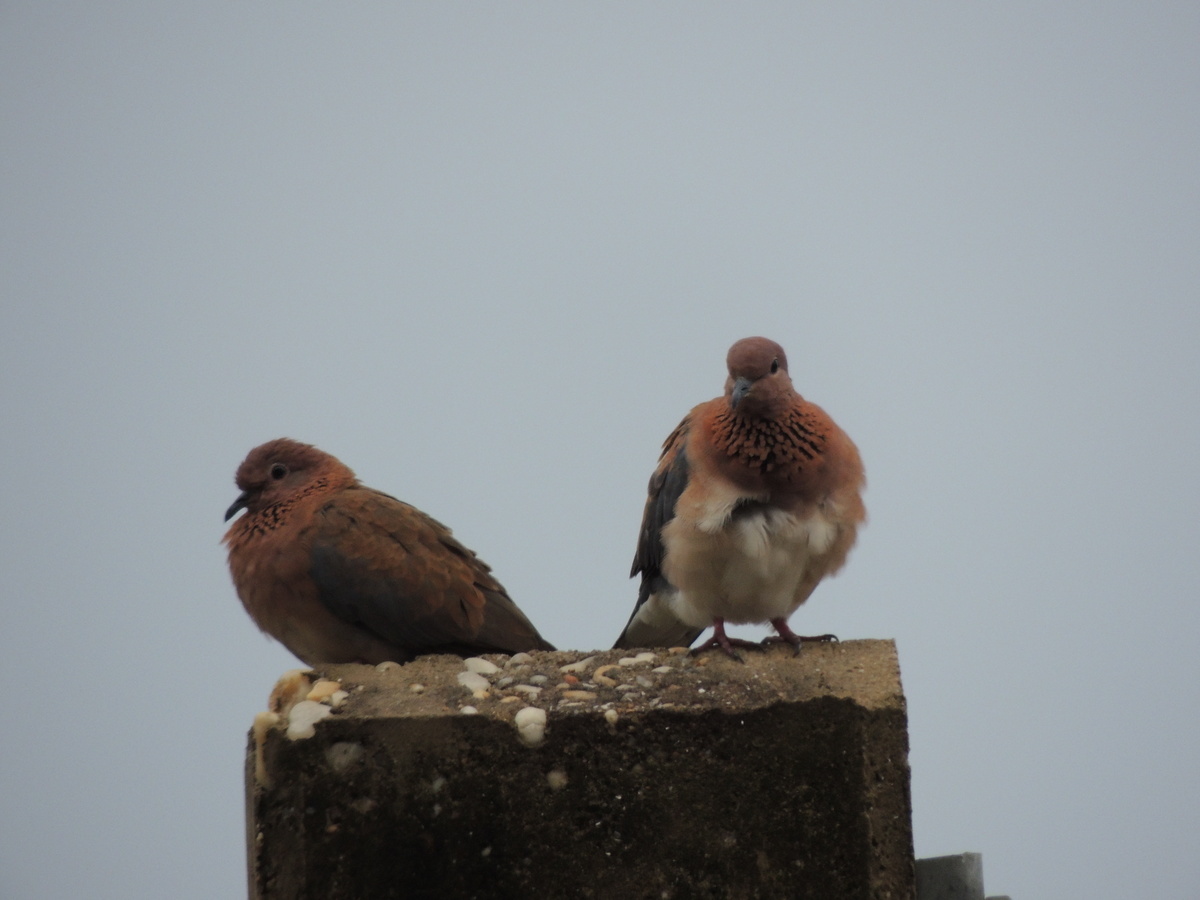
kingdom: Animalia
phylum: Chordata
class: Aves
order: Columbiformes
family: Columbidae
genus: Spilopelia
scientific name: Spilopelia senegalensis
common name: Laughing dove
